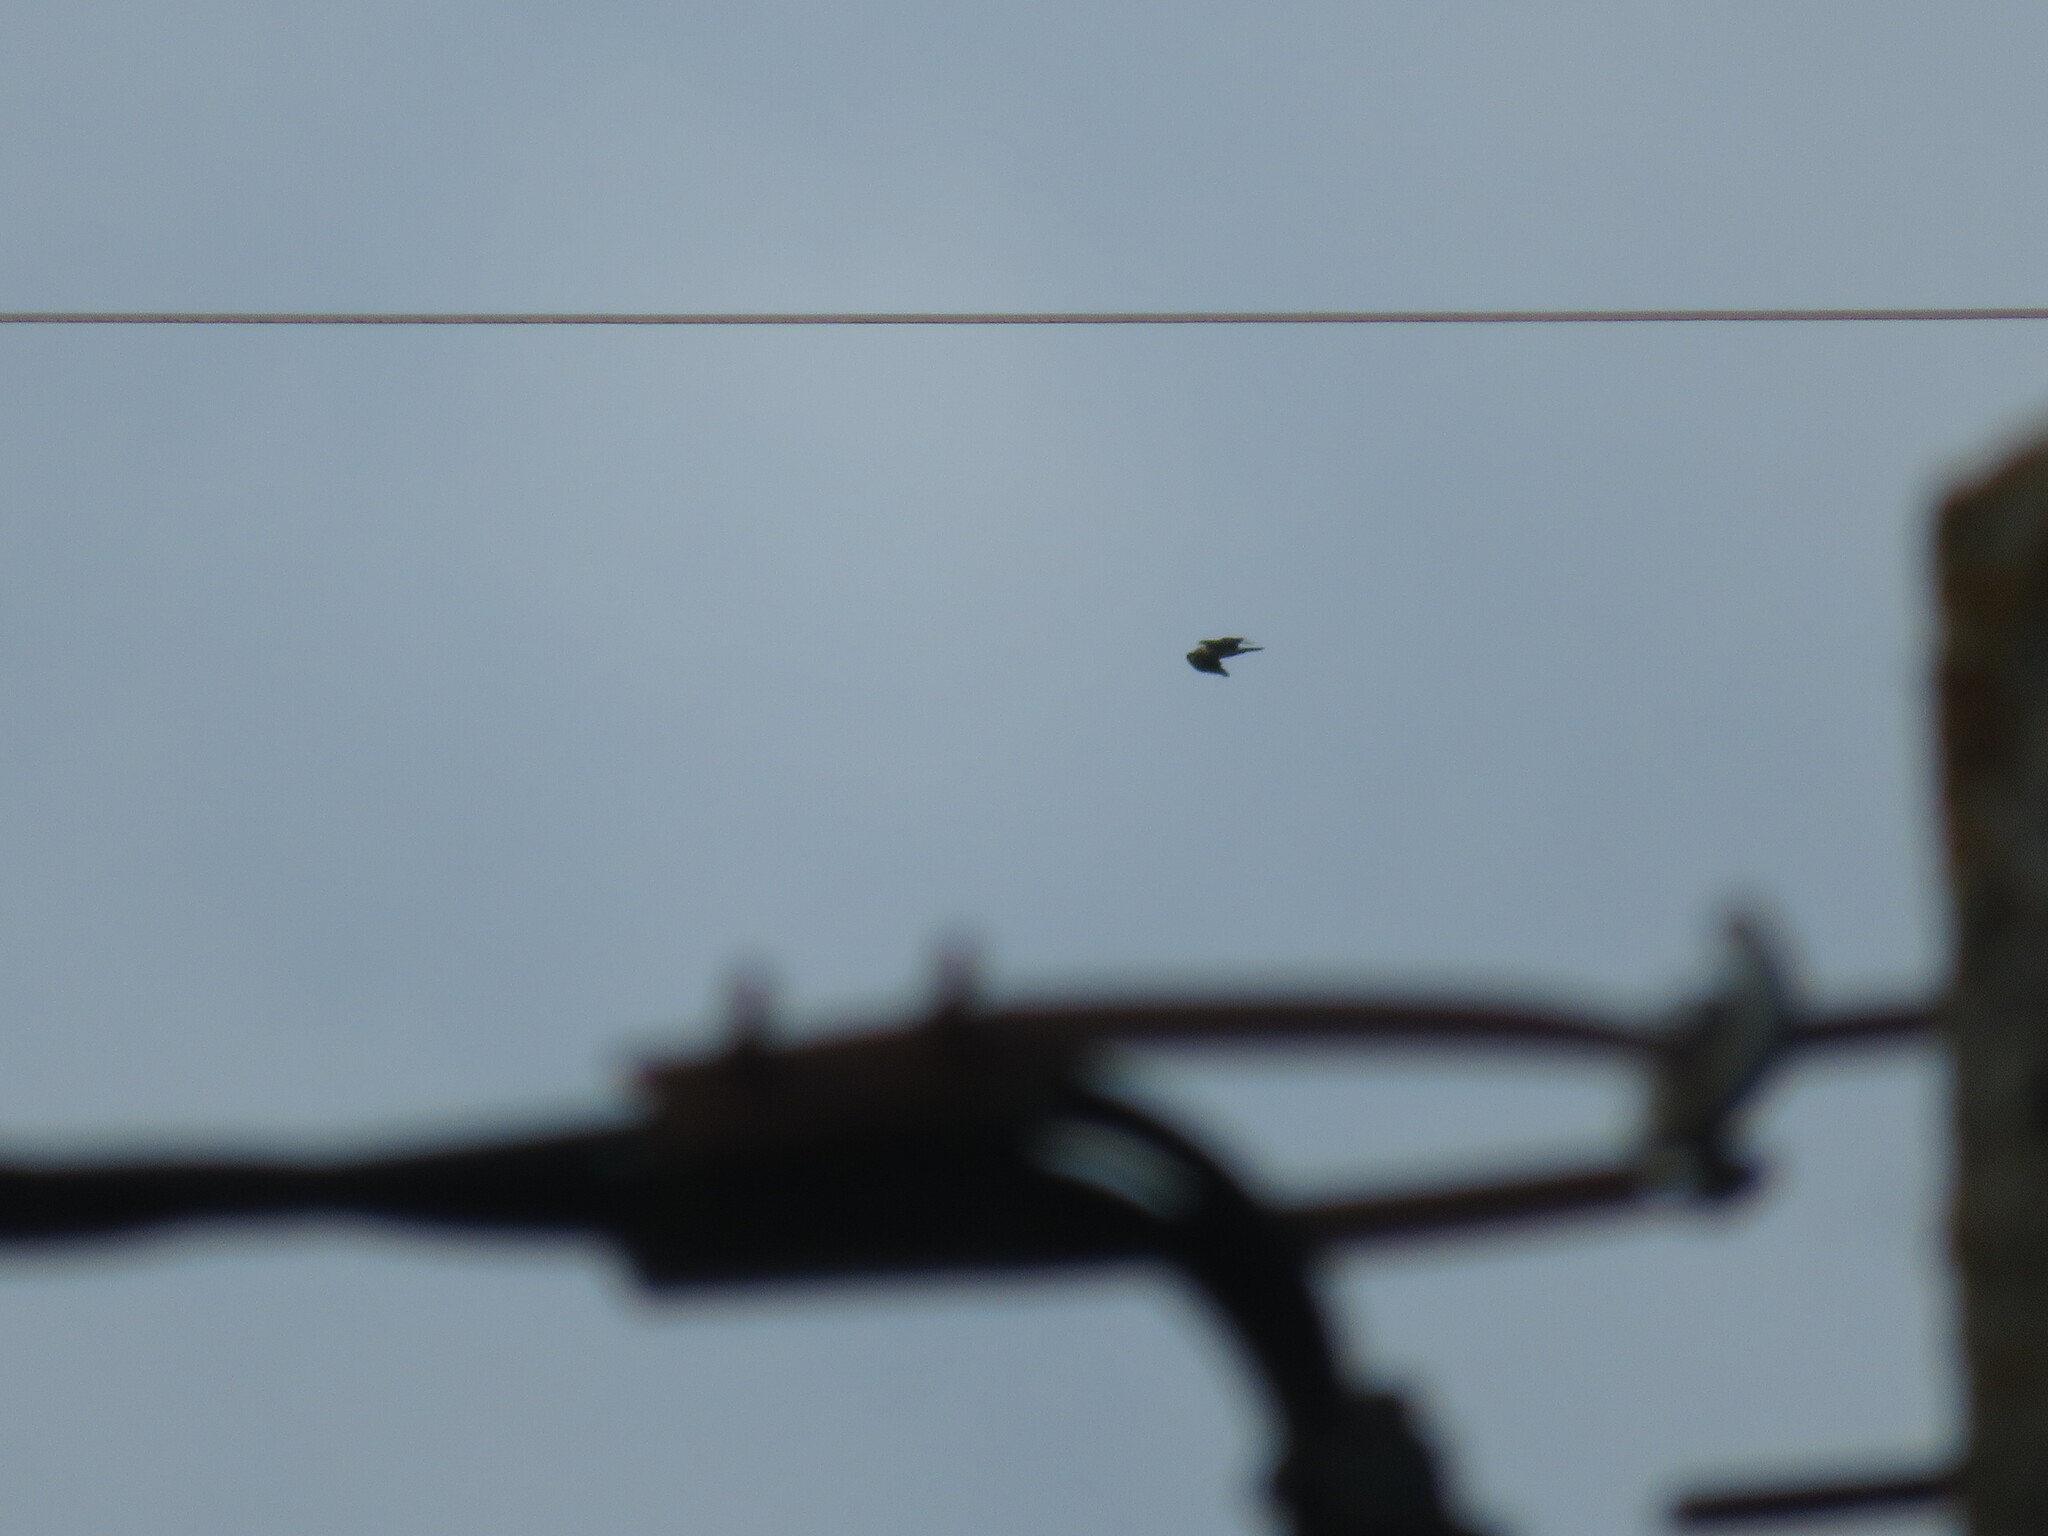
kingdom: Animalia
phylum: Chordata
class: Aves
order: Accipitriformes
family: Accipitridae
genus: Hieraaetus
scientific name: Hieraaetus pennatus
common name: Booted eagle
